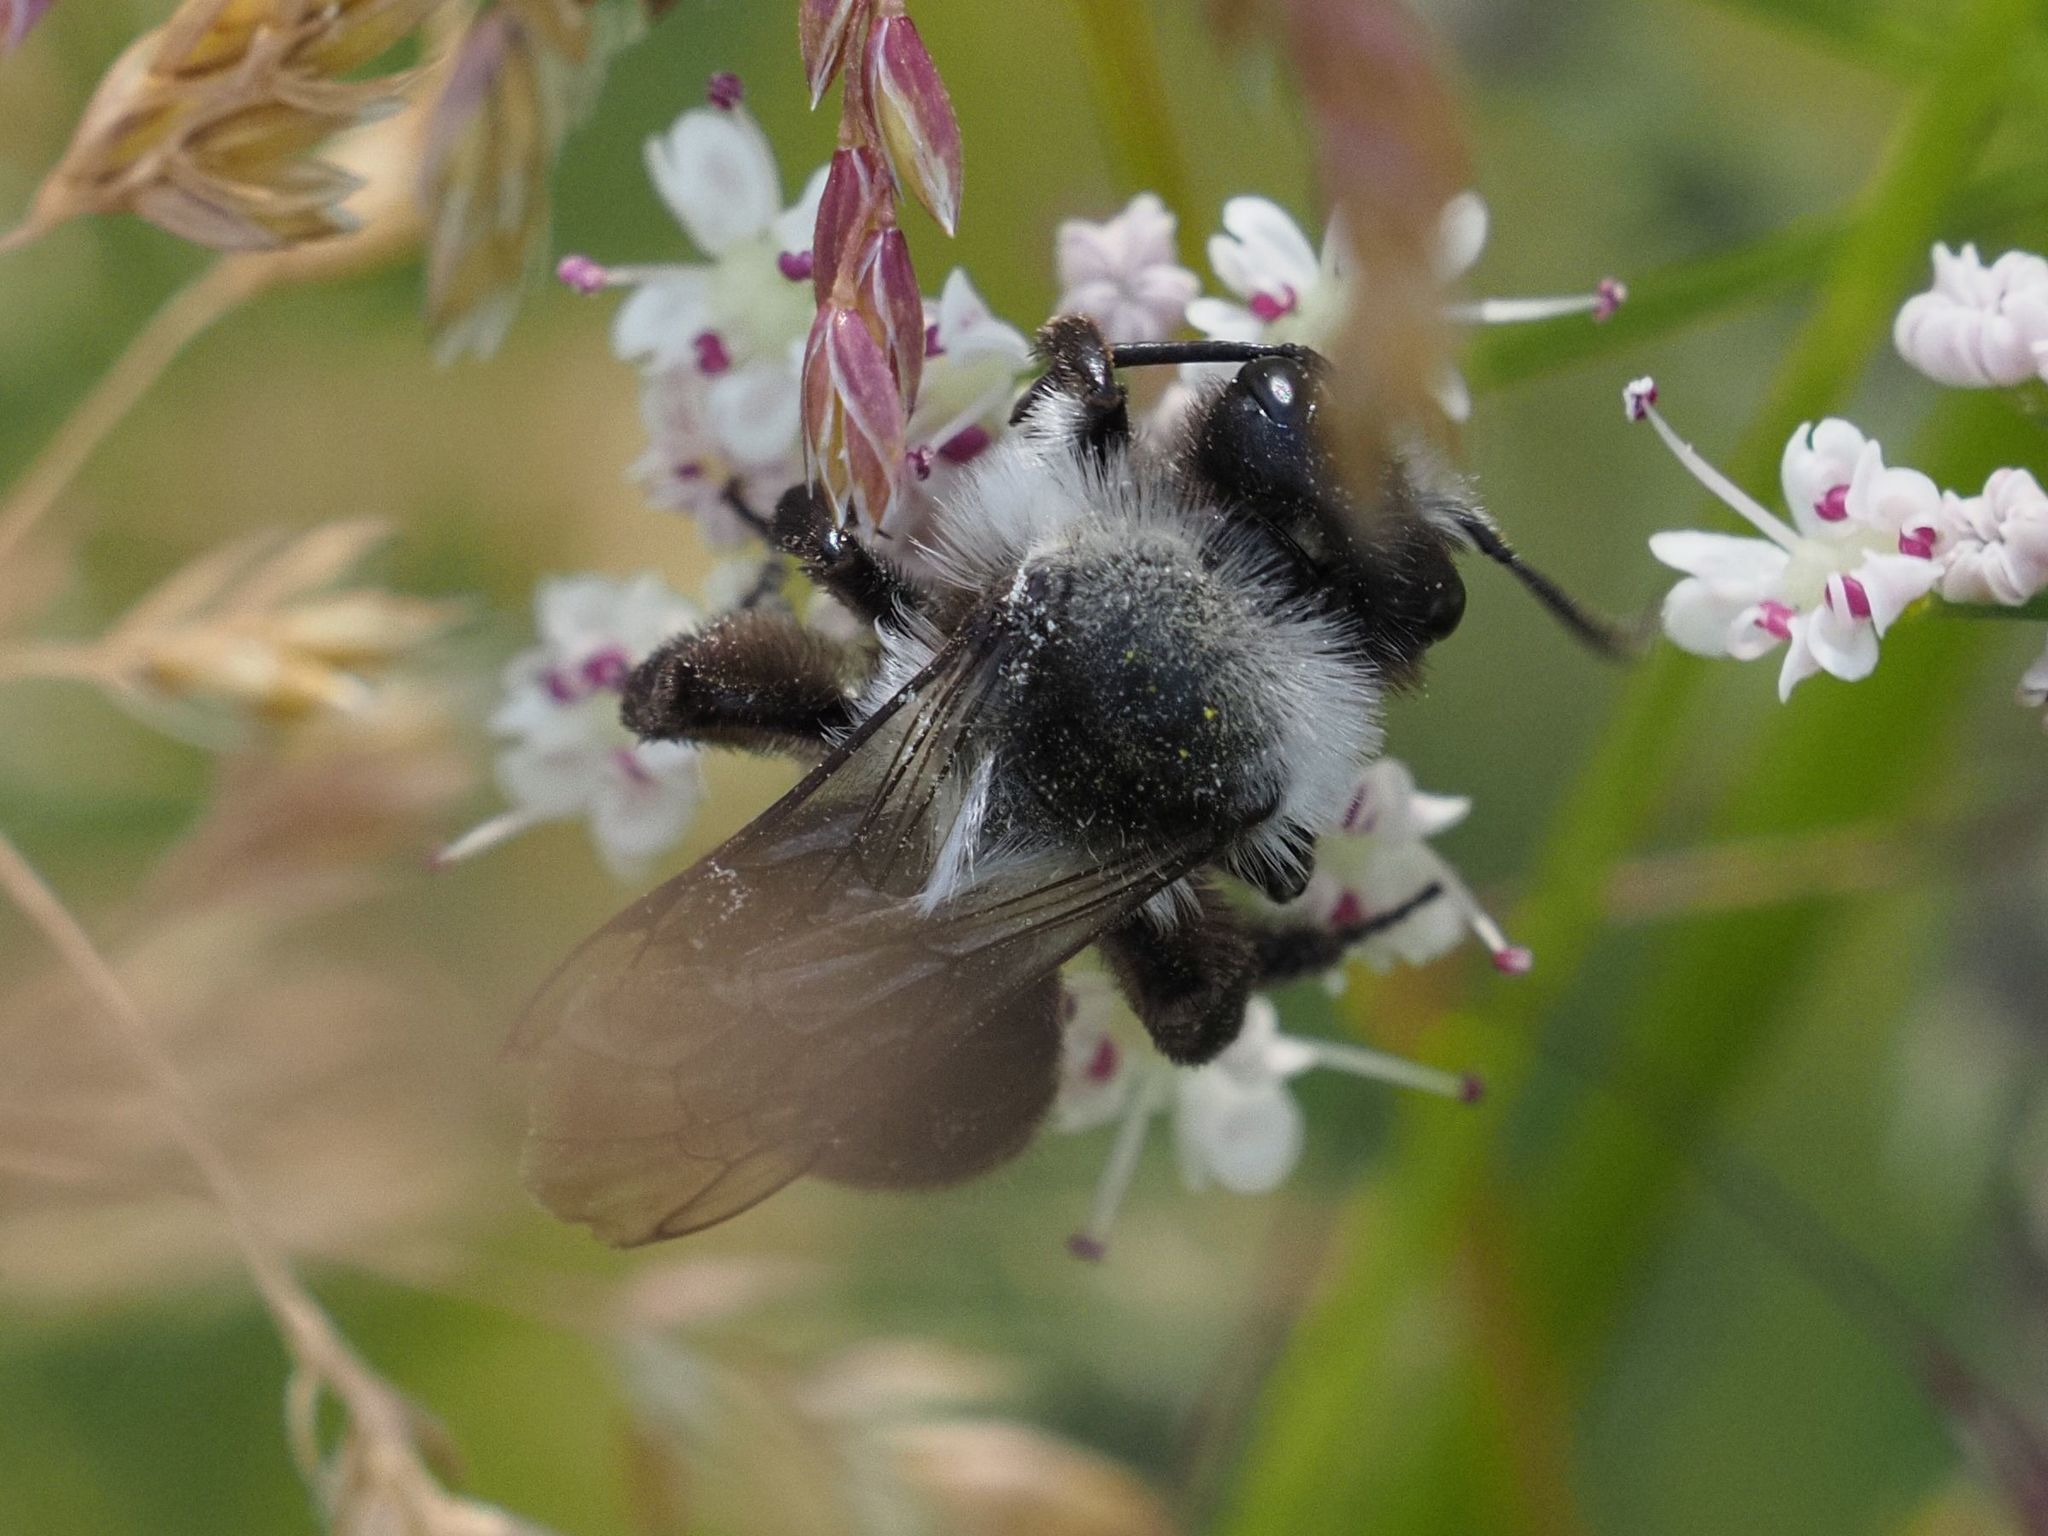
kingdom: Animalia
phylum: Arthropoda
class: Insecta
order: Hymenoptera
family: Andrenidae
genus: Andrena
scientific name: Andrena cineraria
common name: Ashy mining bee
